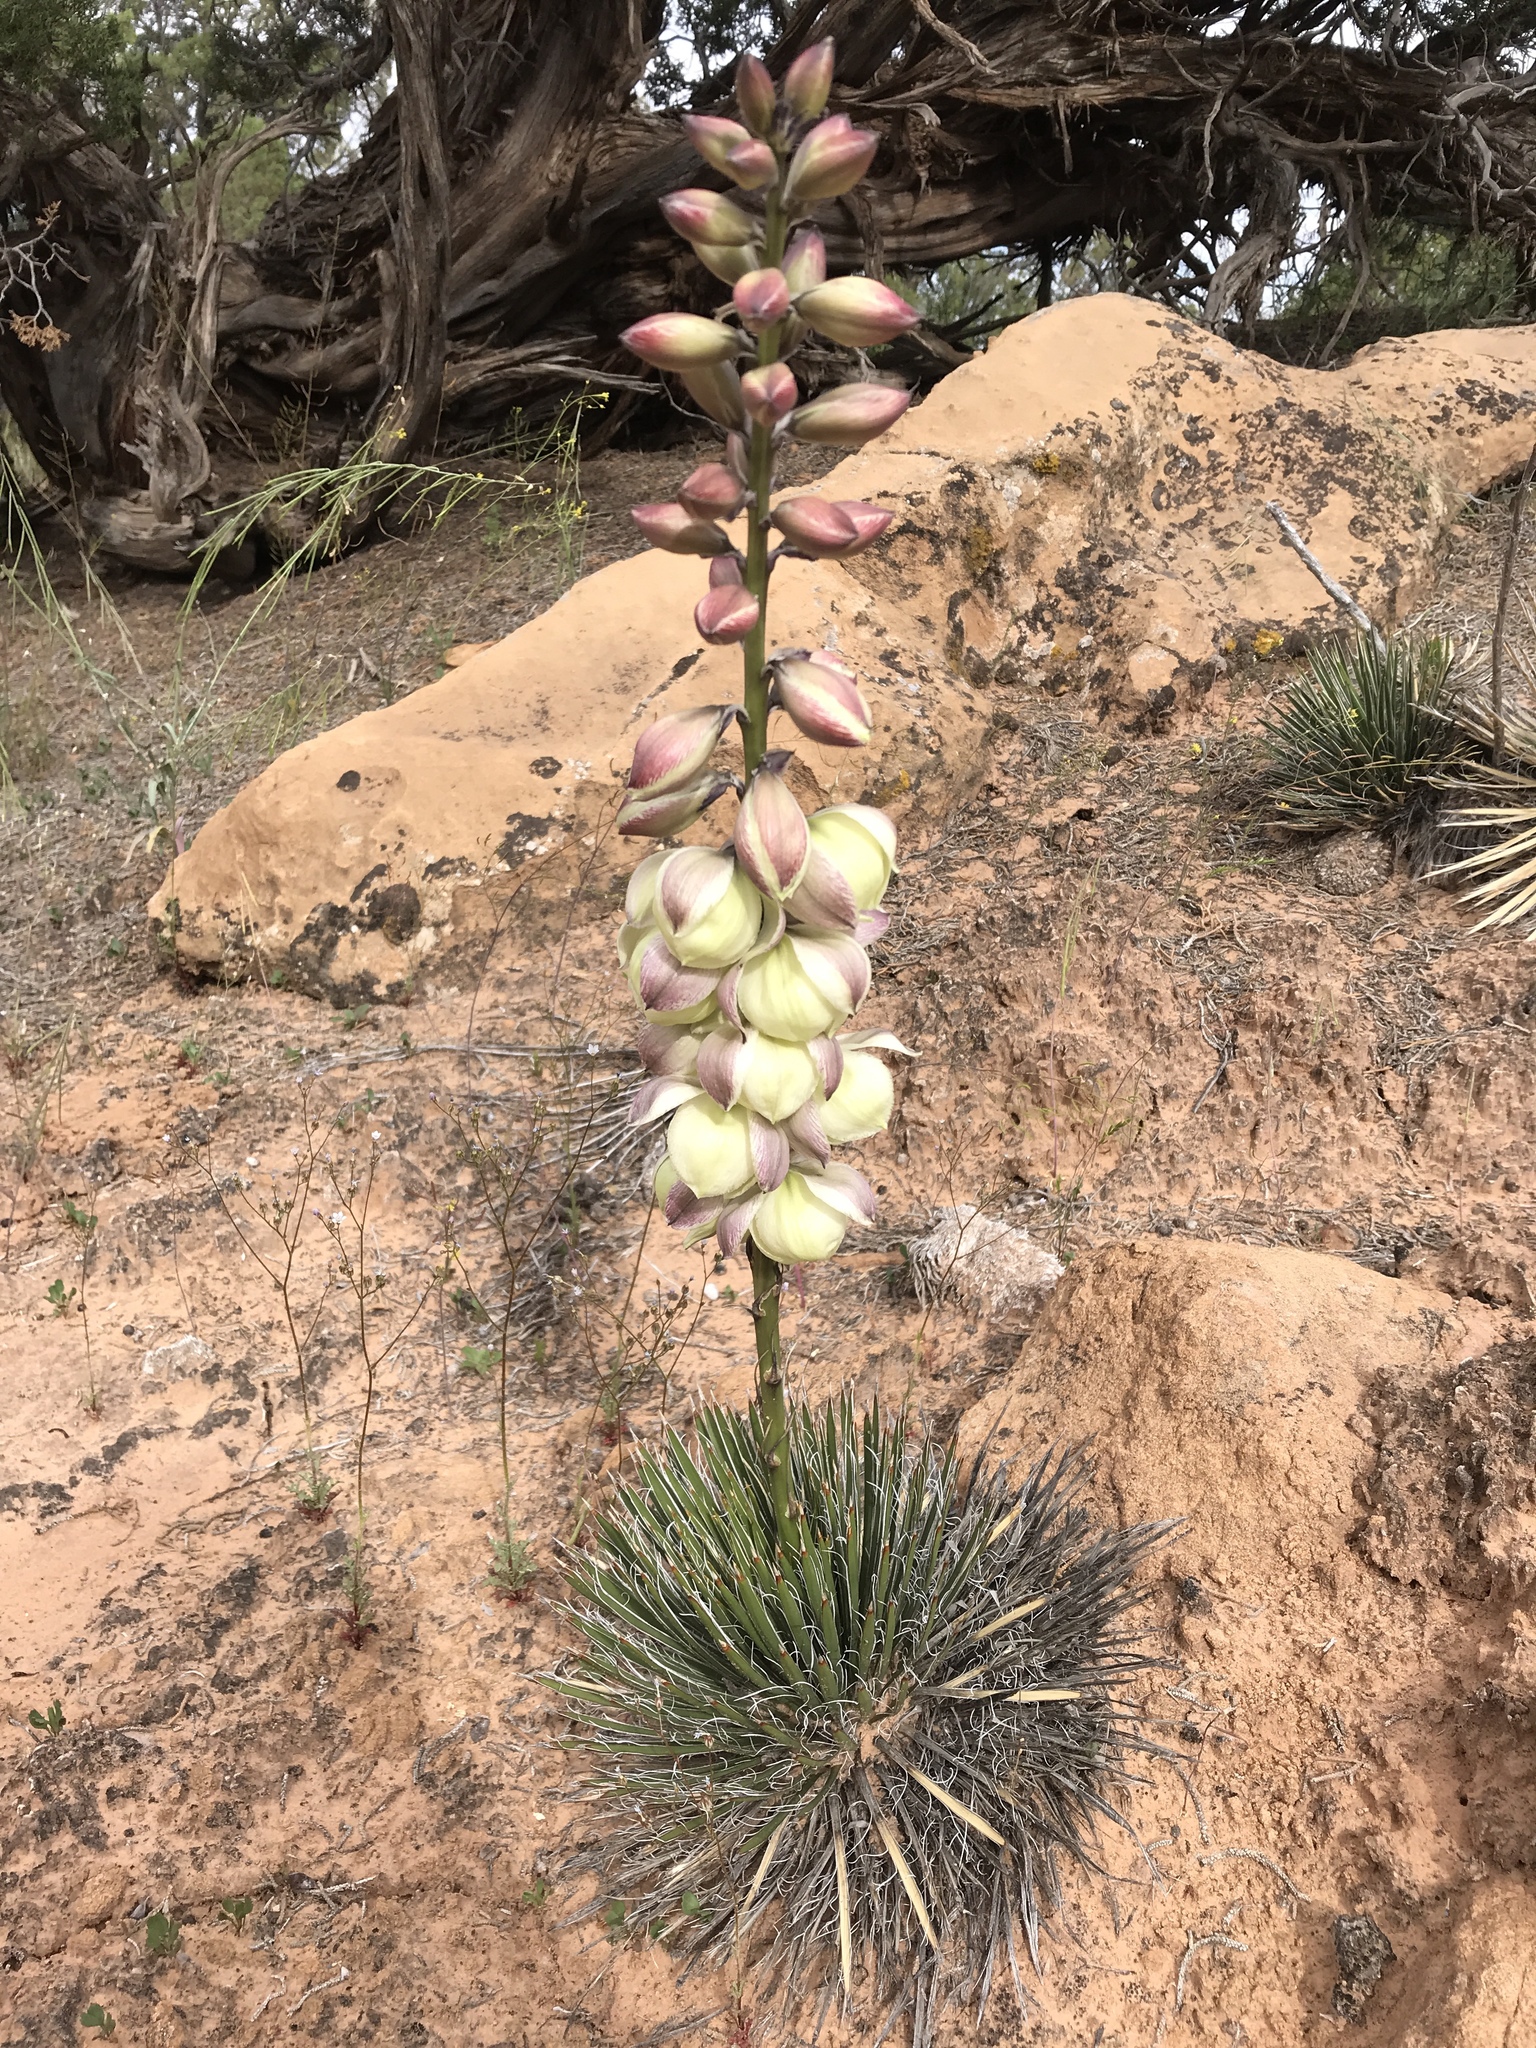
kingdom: Plantae
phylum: Tracheophyta
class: Liliopsida
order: Asparagales
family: Asparagaceae
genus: Yucca
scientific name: Yucca harrimaniae
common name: Harriman's yucca
